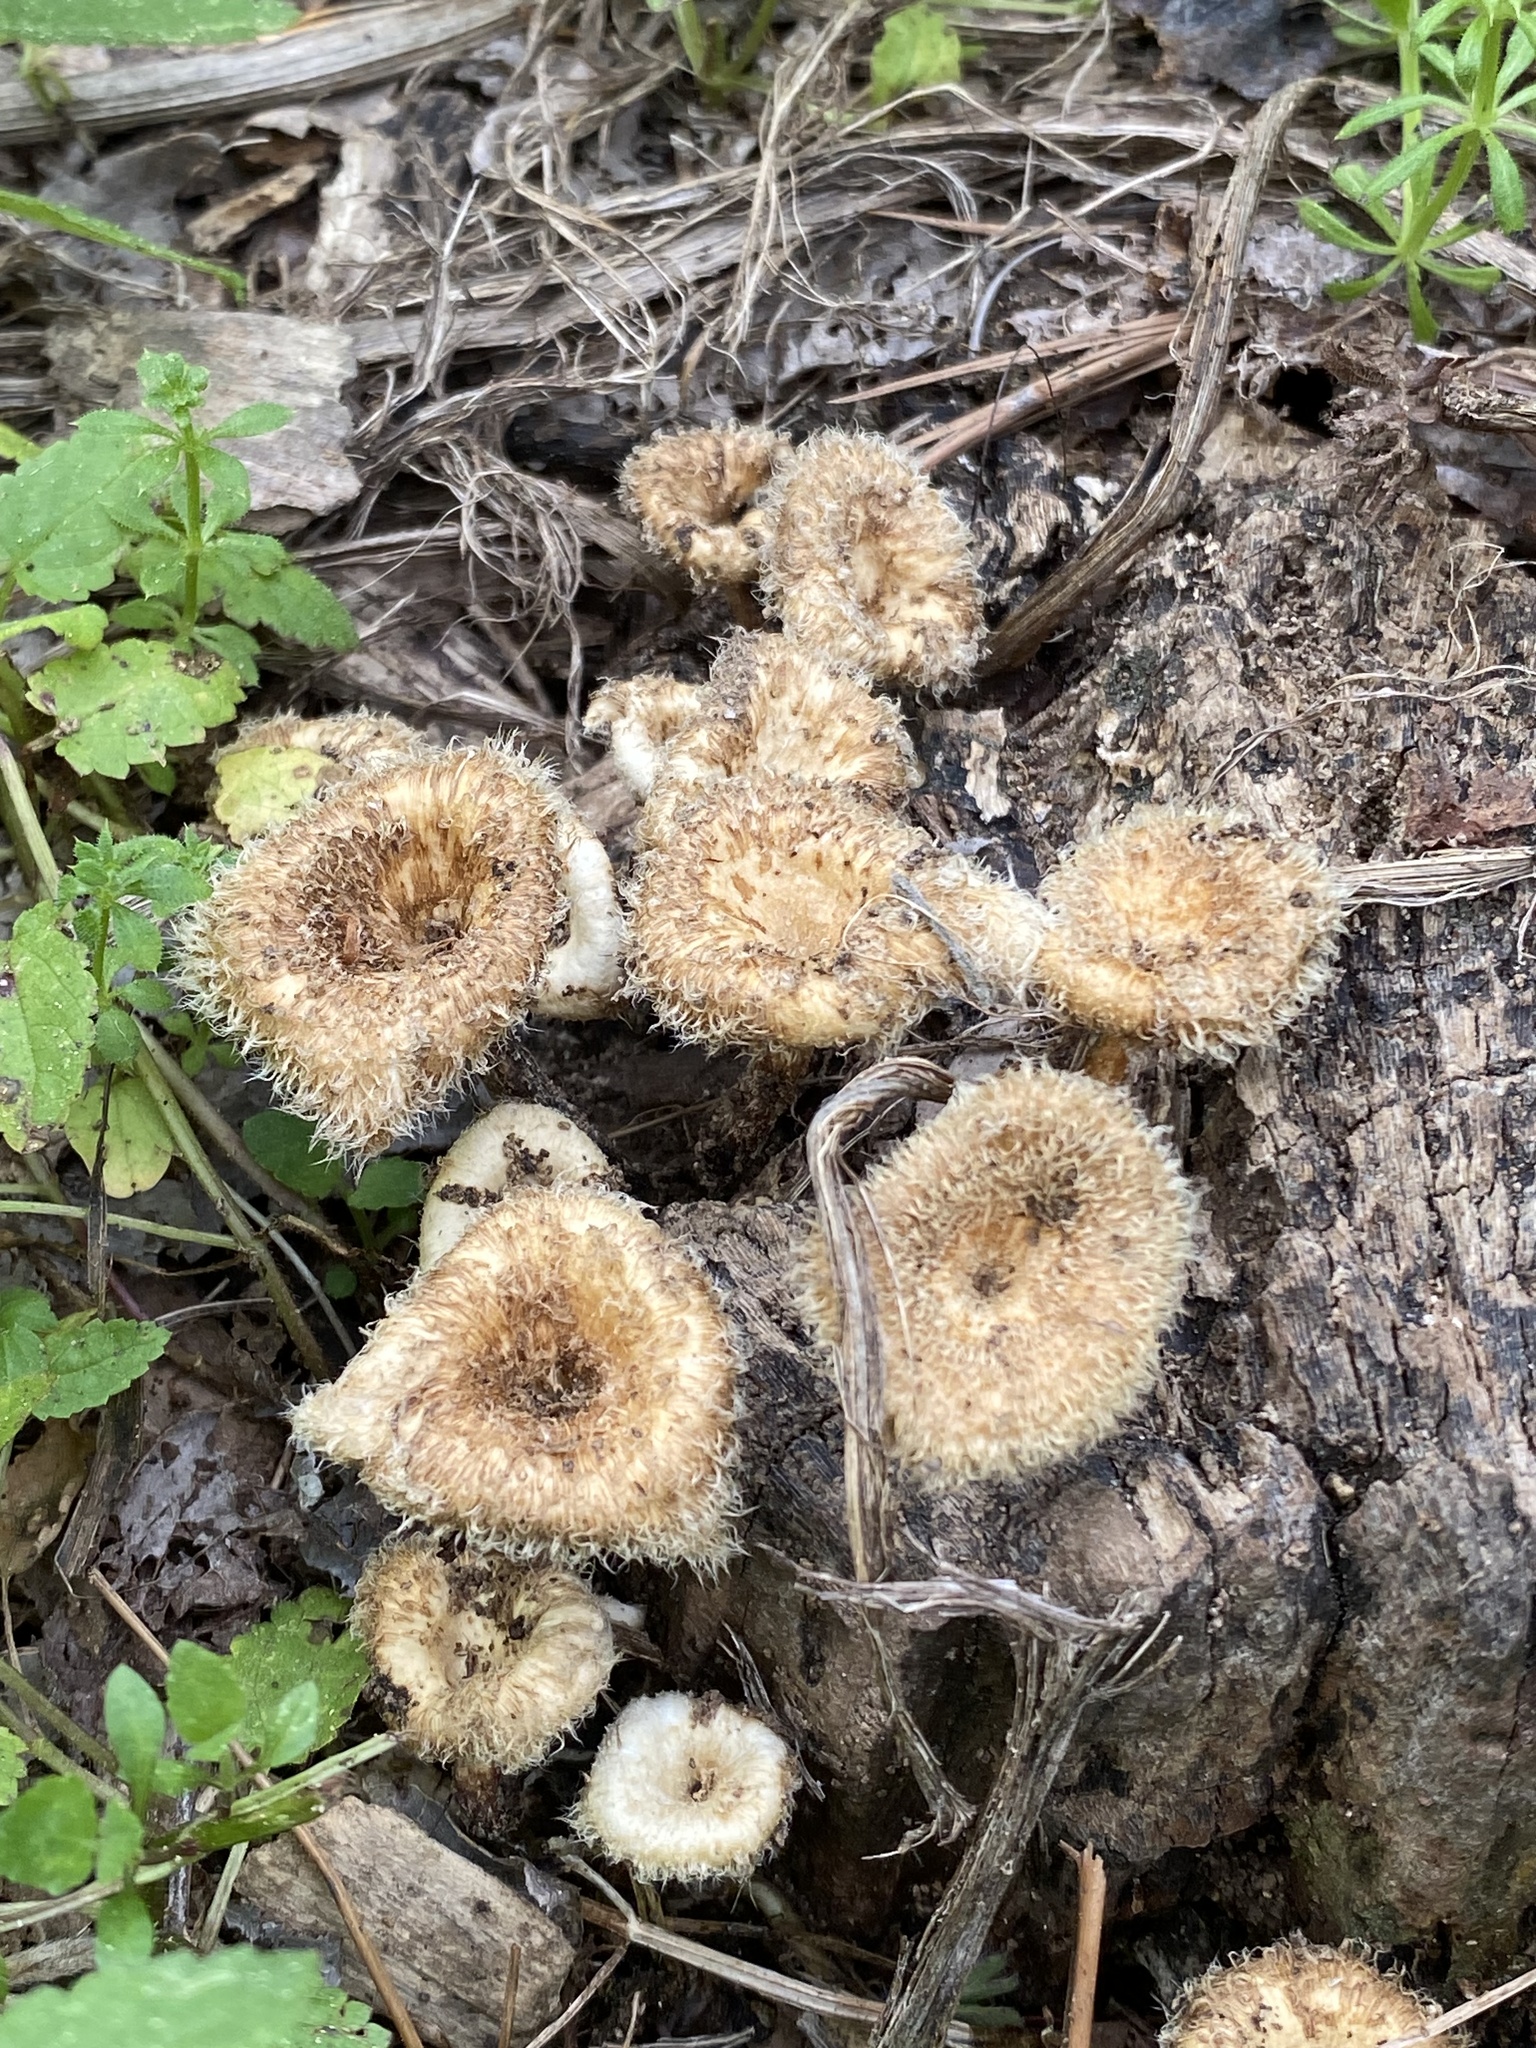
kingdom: Fungi
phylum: Basidiomycota
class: Agaricomycetes
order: Polyporales
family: Polyporaceae
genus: Lentinus
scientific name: Lentinus crinitus
